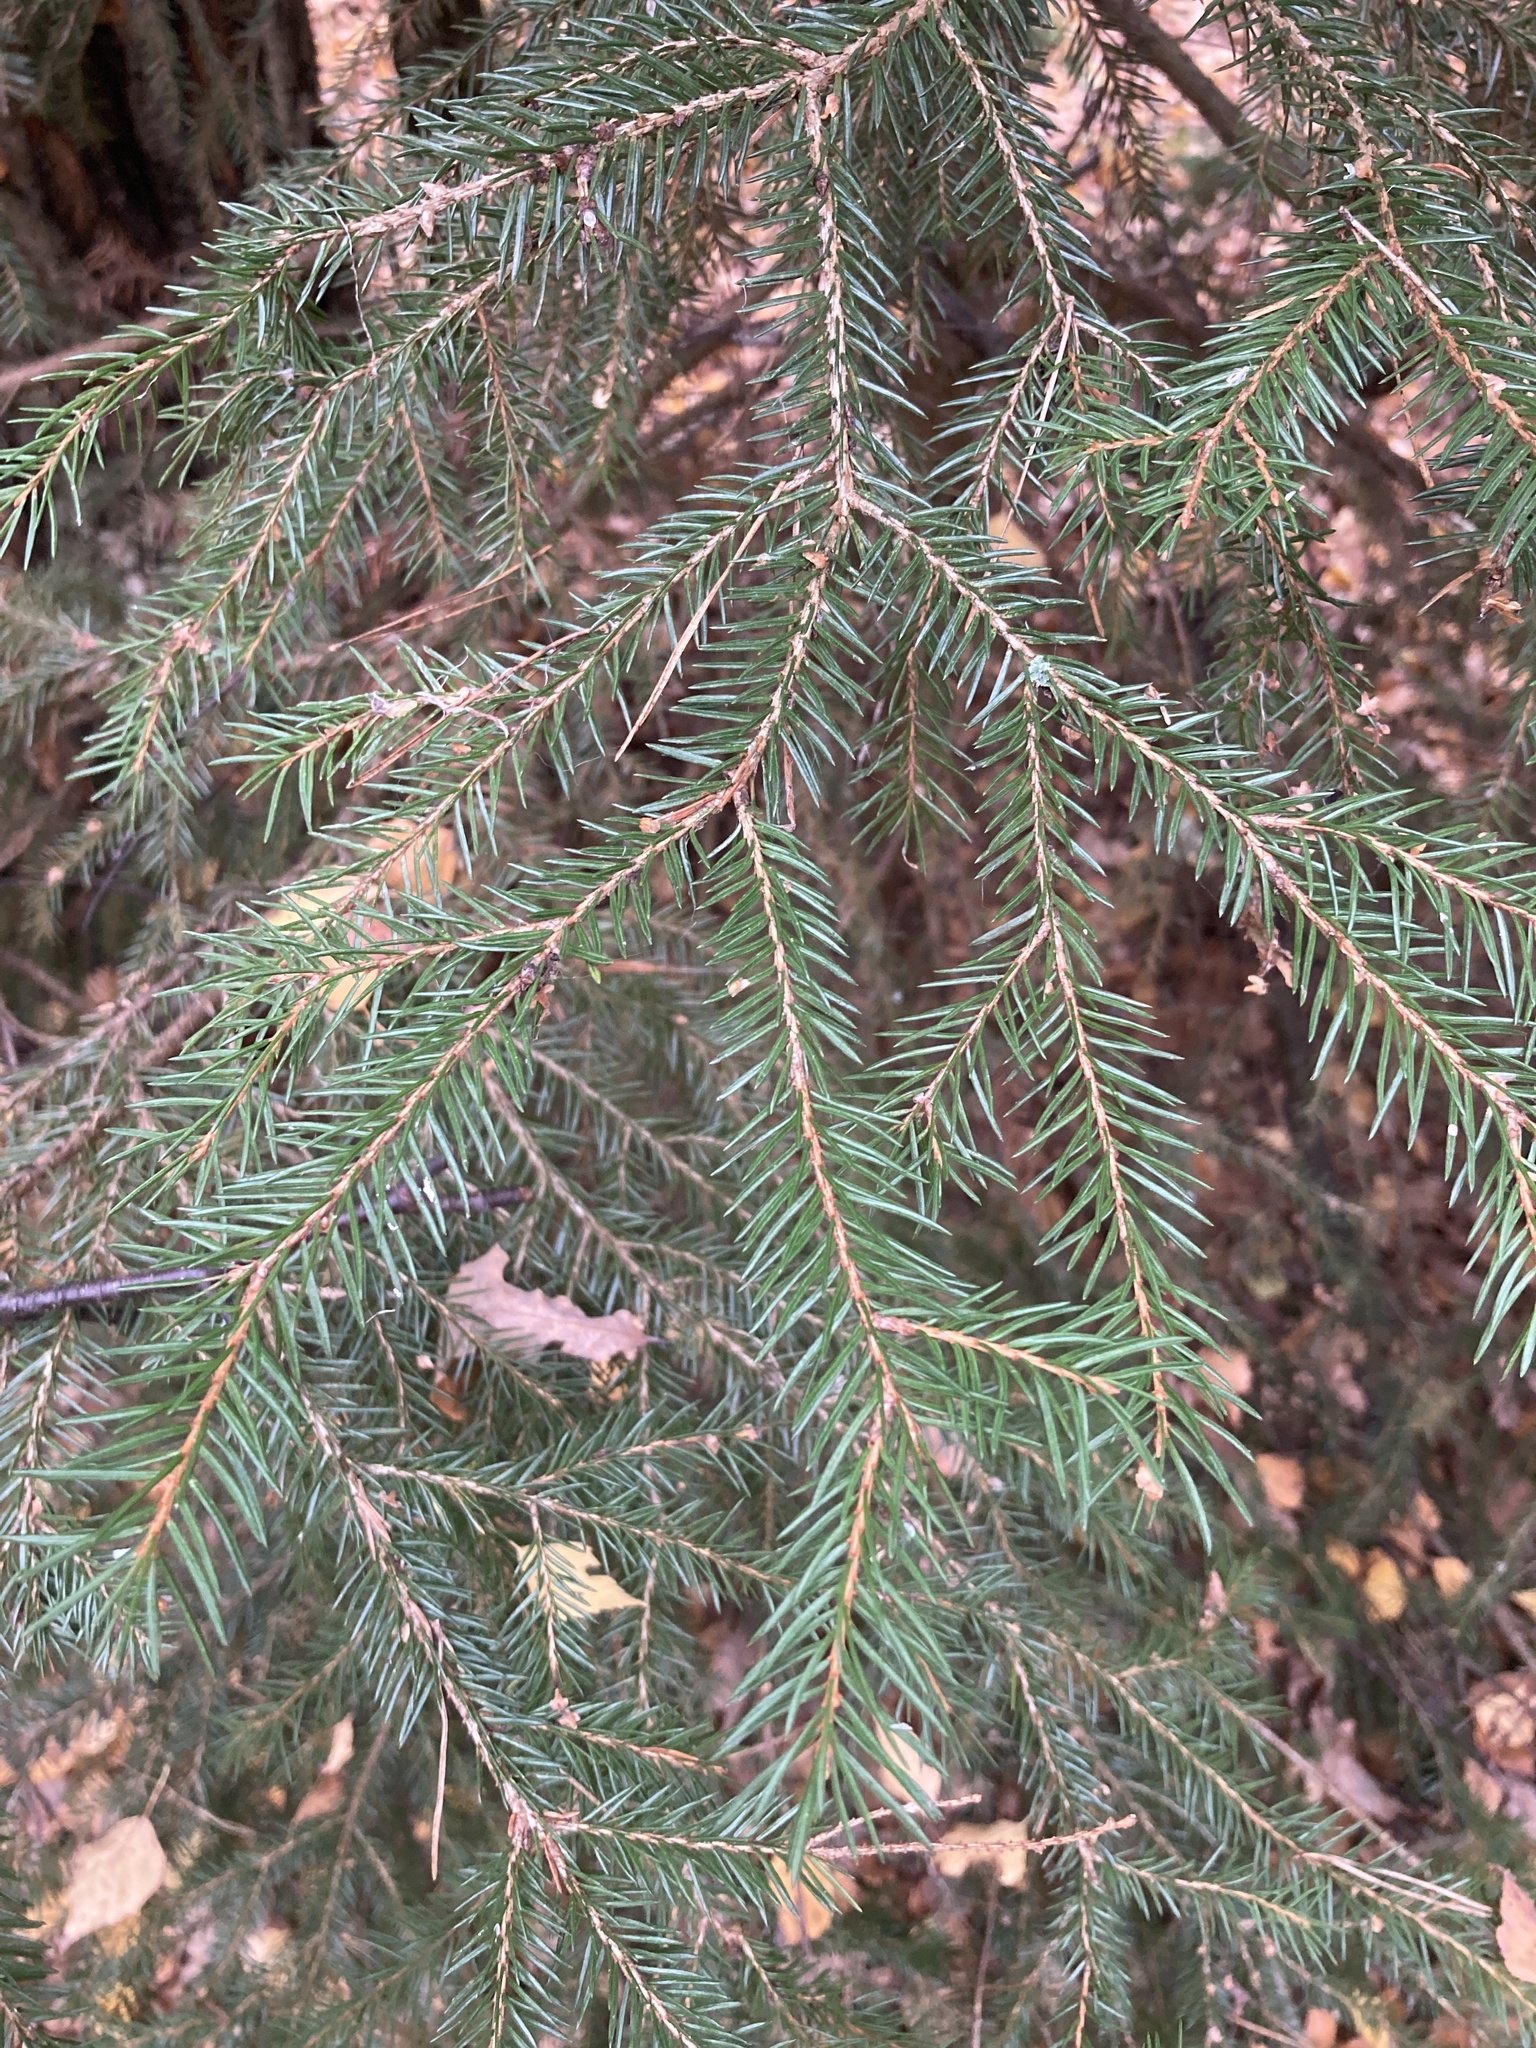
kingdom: Plantae
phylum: Tracheophyta
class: Pinopsida
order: Pinales
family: Pinaceae
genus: Picea
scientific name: Picea abies
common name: Norway spruce
